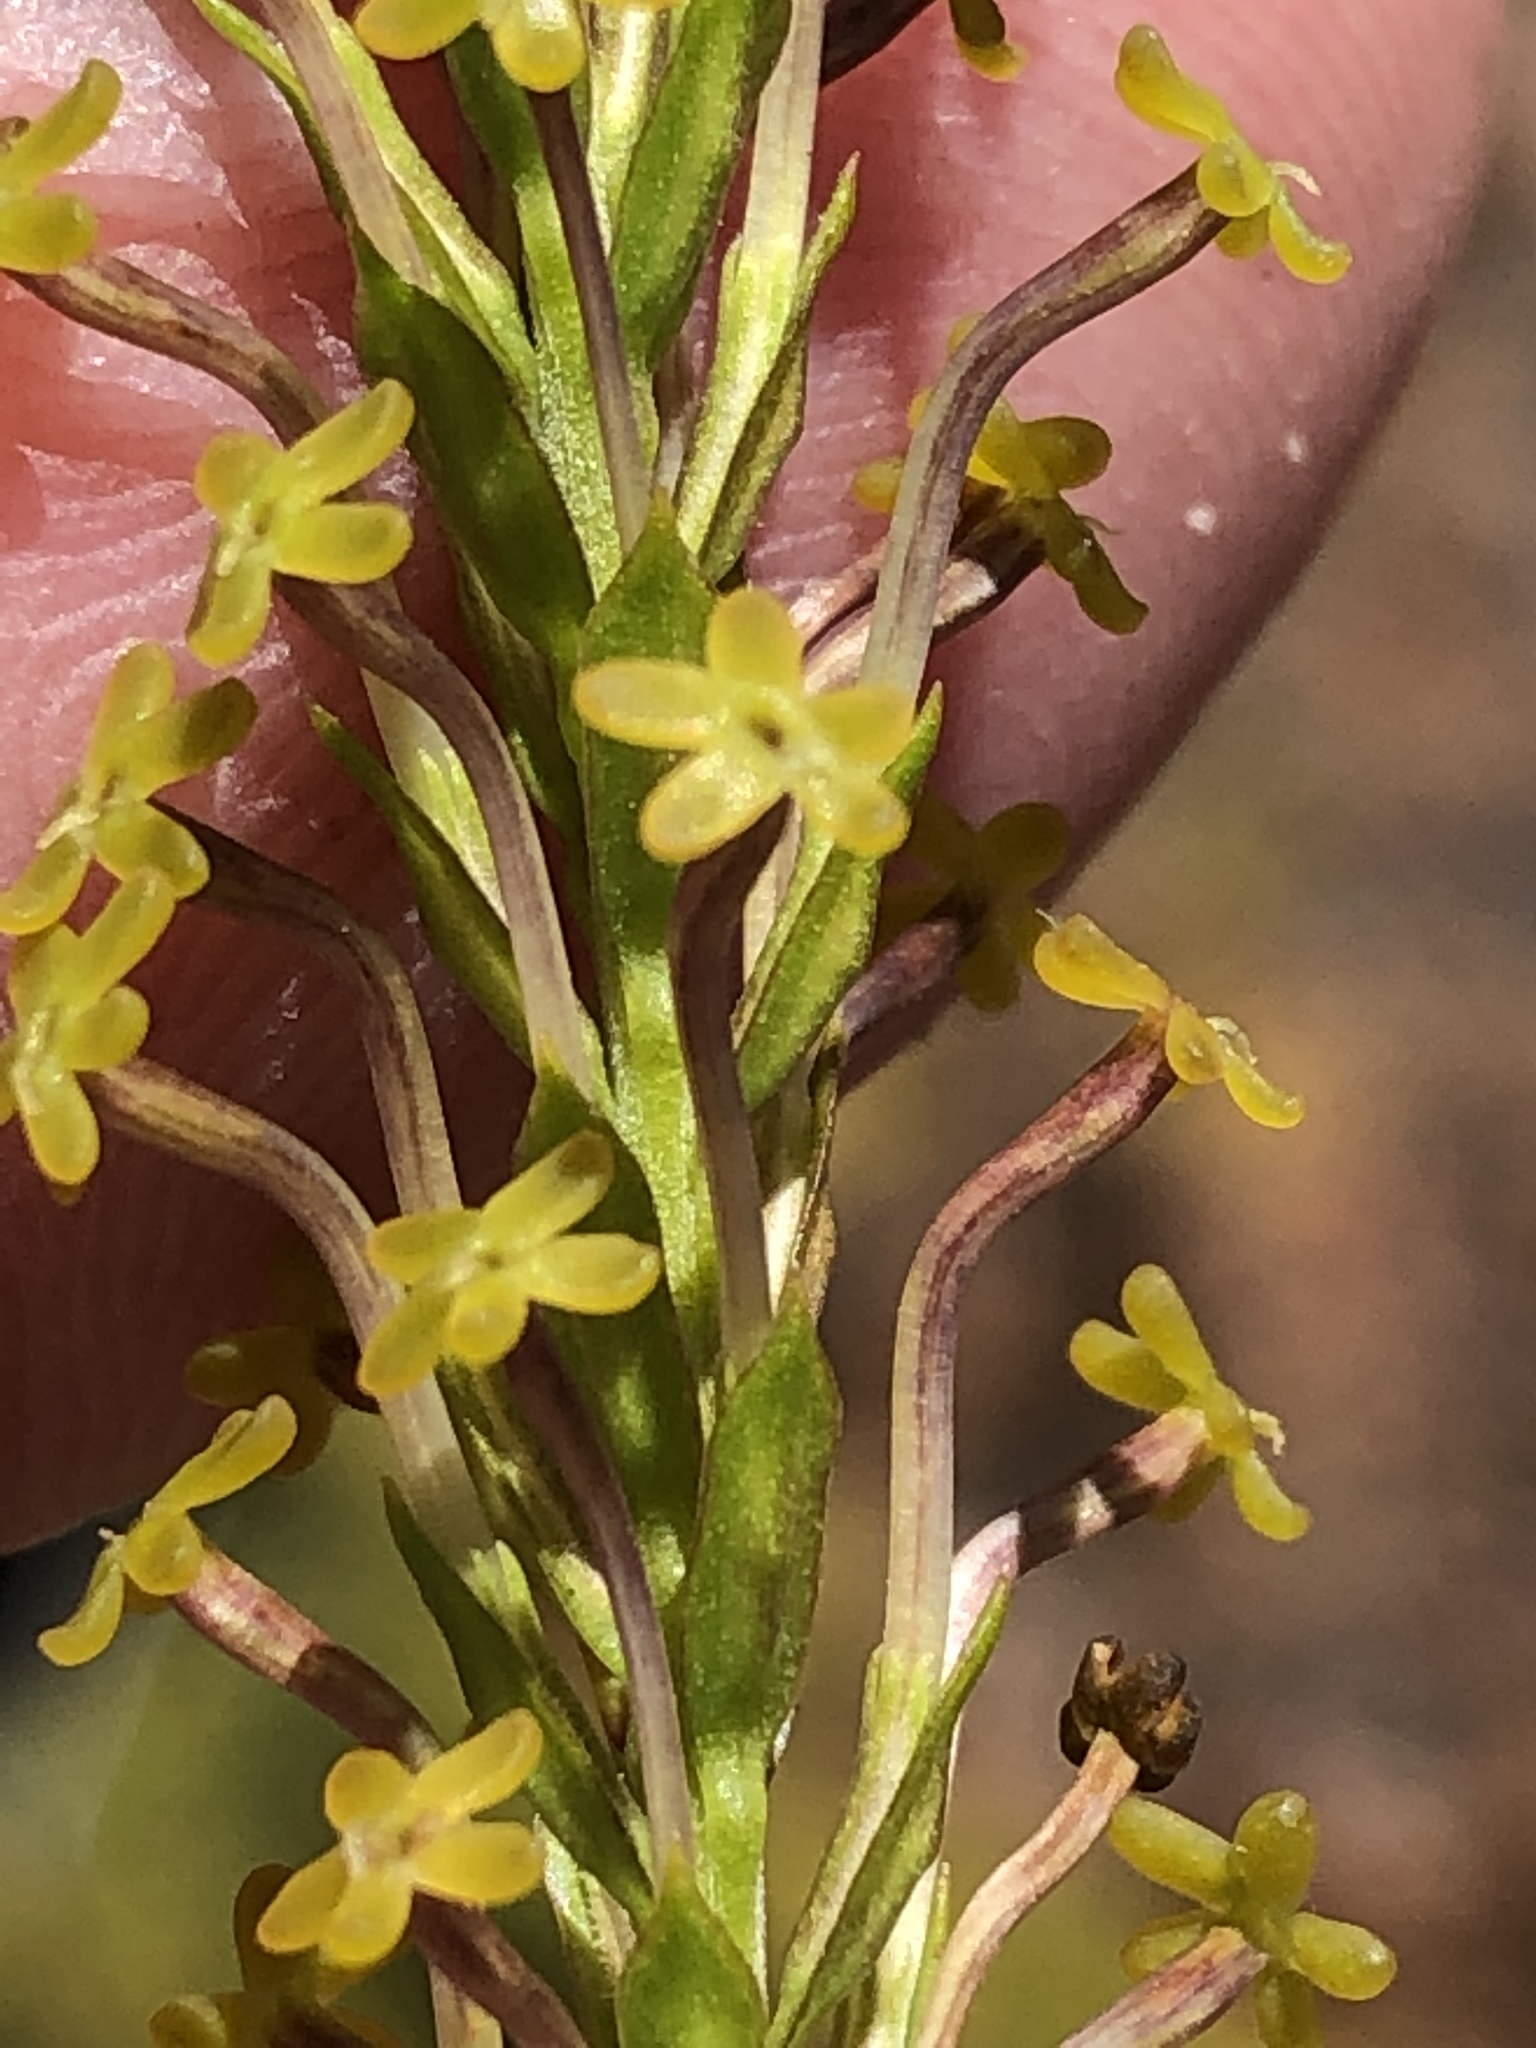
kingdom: Plantae
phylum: Tracheophyta
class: Magnoliopsida
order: Lamiales
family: Scrophulariaceae
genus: Microdon
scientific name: Microdon dubius
